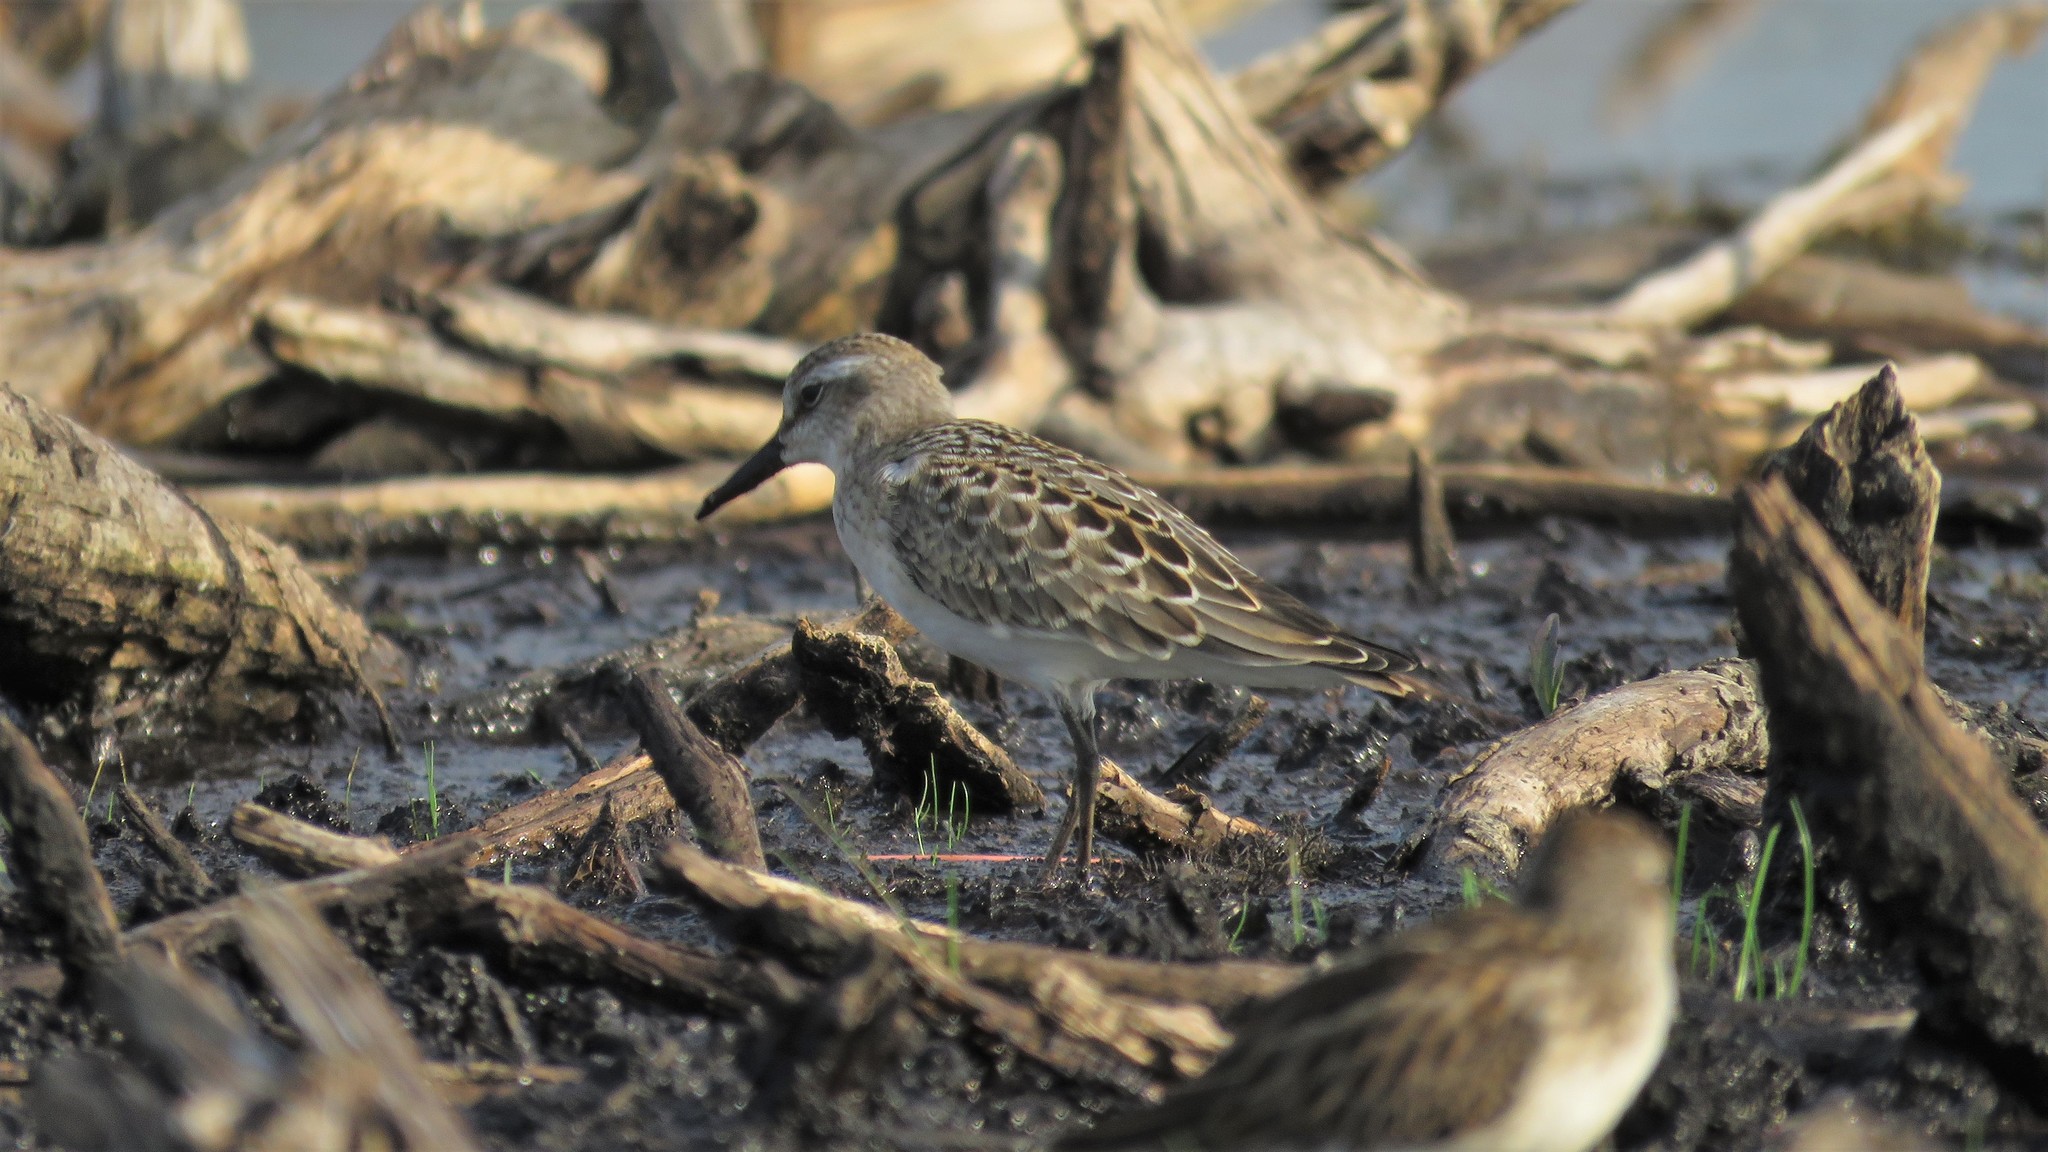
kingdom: Animalia
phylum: Chordata
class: Aves
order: Charadriiformes
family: Scolopacidae
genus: Calidris
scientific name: Calidris pusilla
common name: Semipalmated sandpiper
